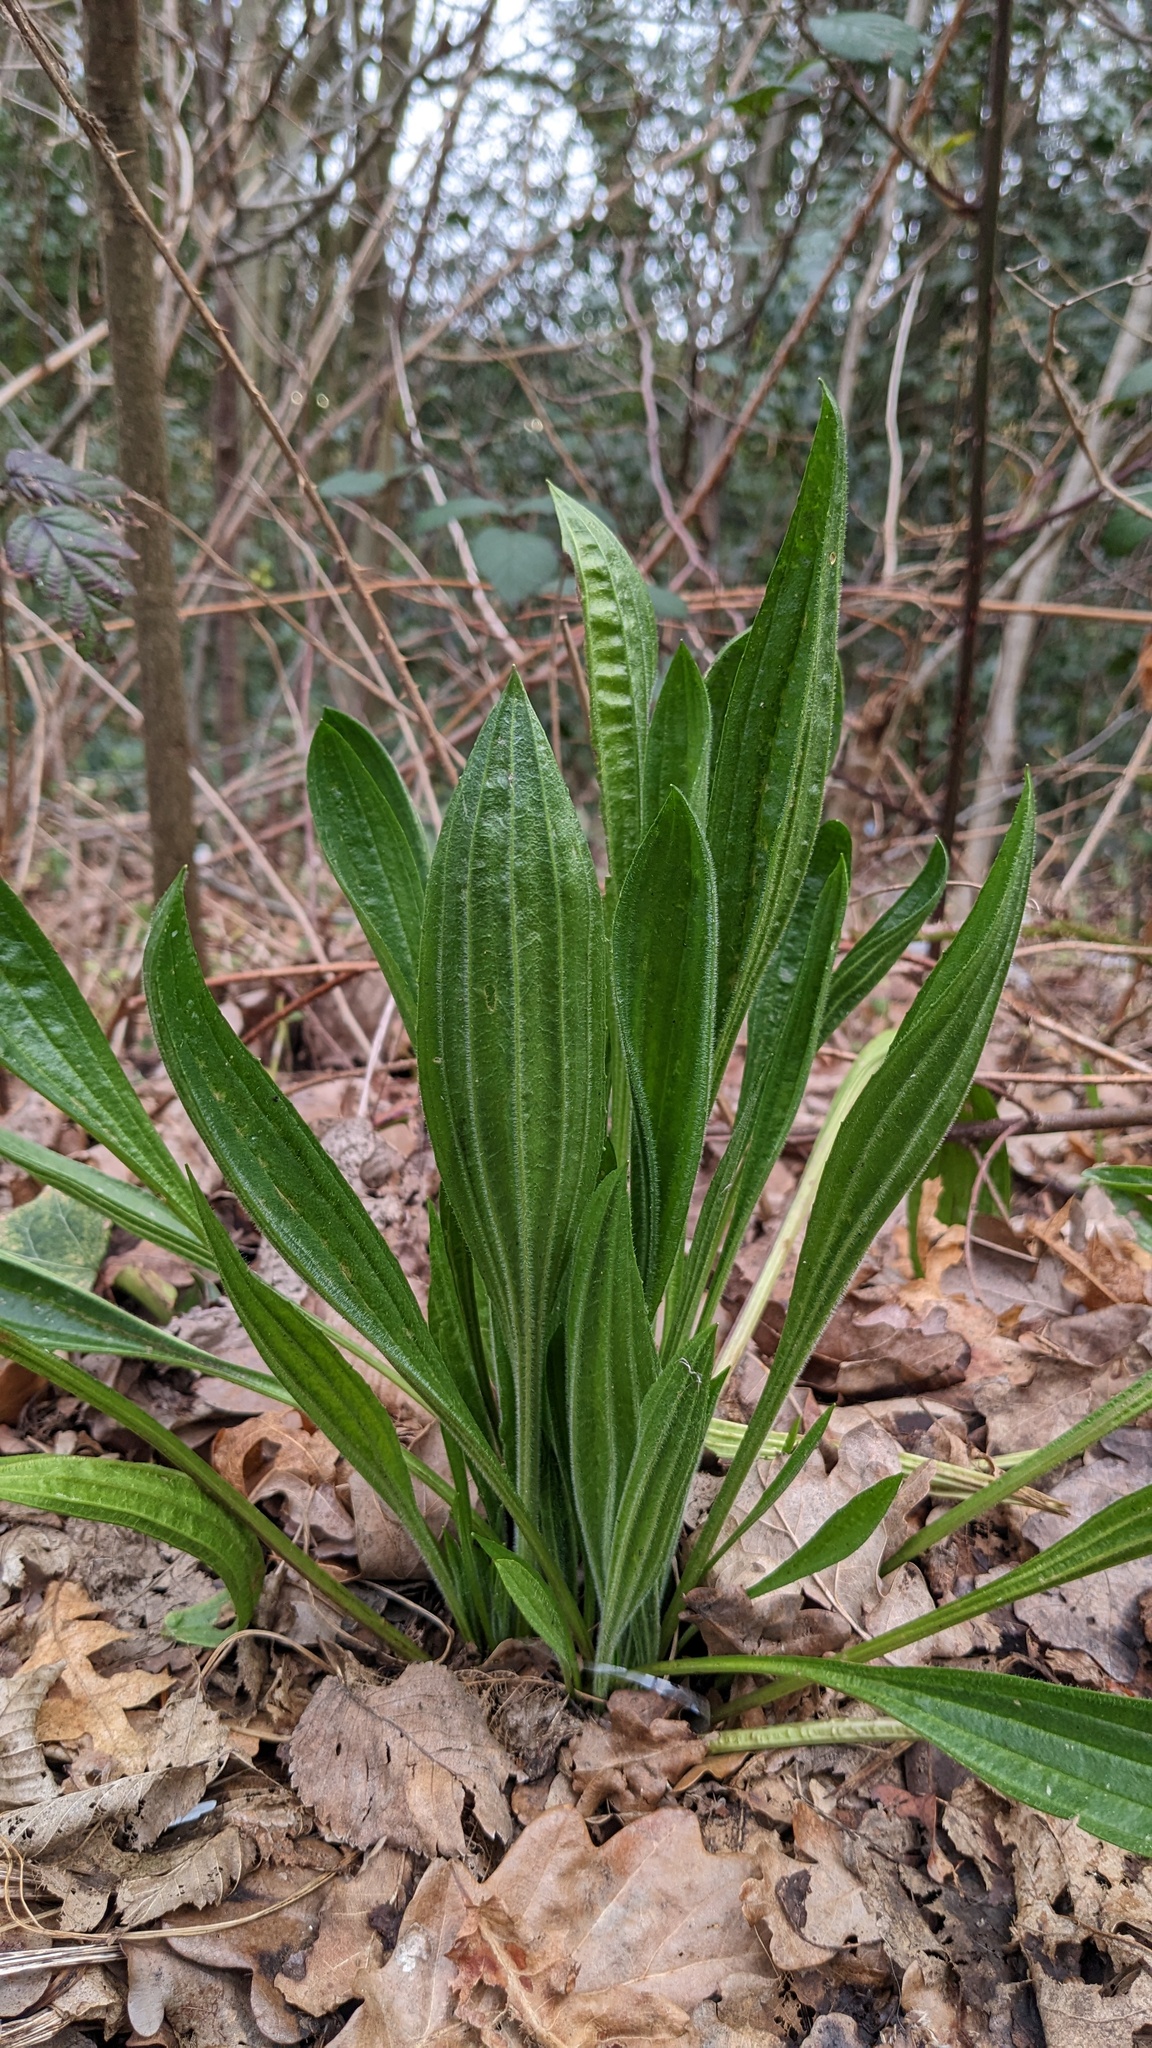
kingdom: Plantae
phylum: Tracheophyta
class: Magnoliopsida
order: Lamiales
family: Plantaginaceae
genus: Plantago
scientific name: Plantago lanceolata
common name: Ribwort plantain
